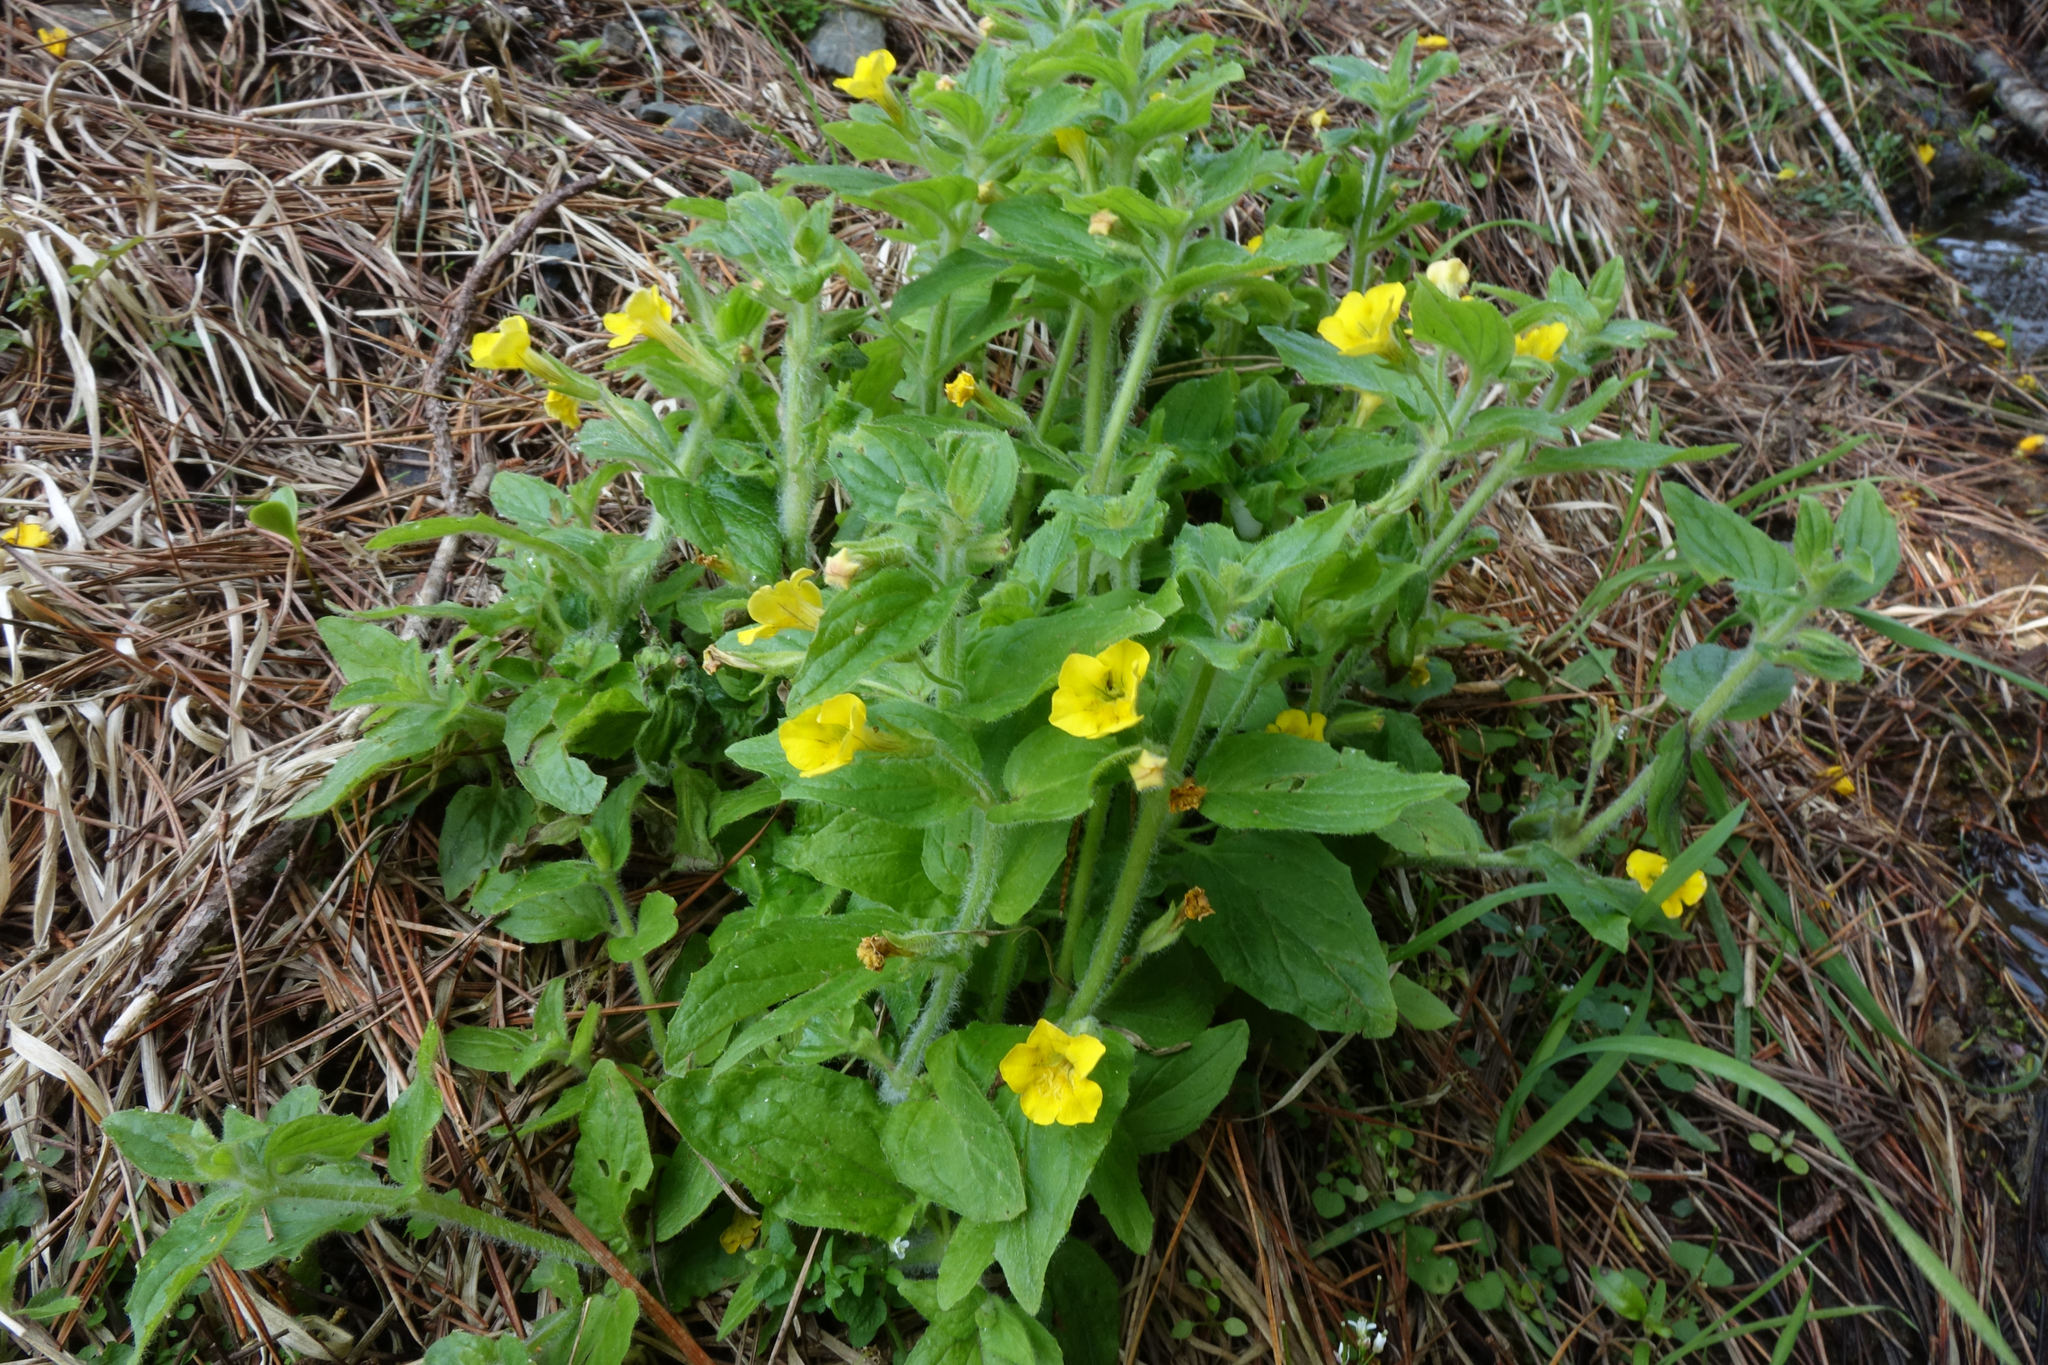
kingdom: Plantae
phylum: Tracheophyta
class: Magnoliopsida
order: Lamiales
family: Phrymaceae
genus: Erythranthe
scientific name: Erythranthe moschata
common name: Muskflower
